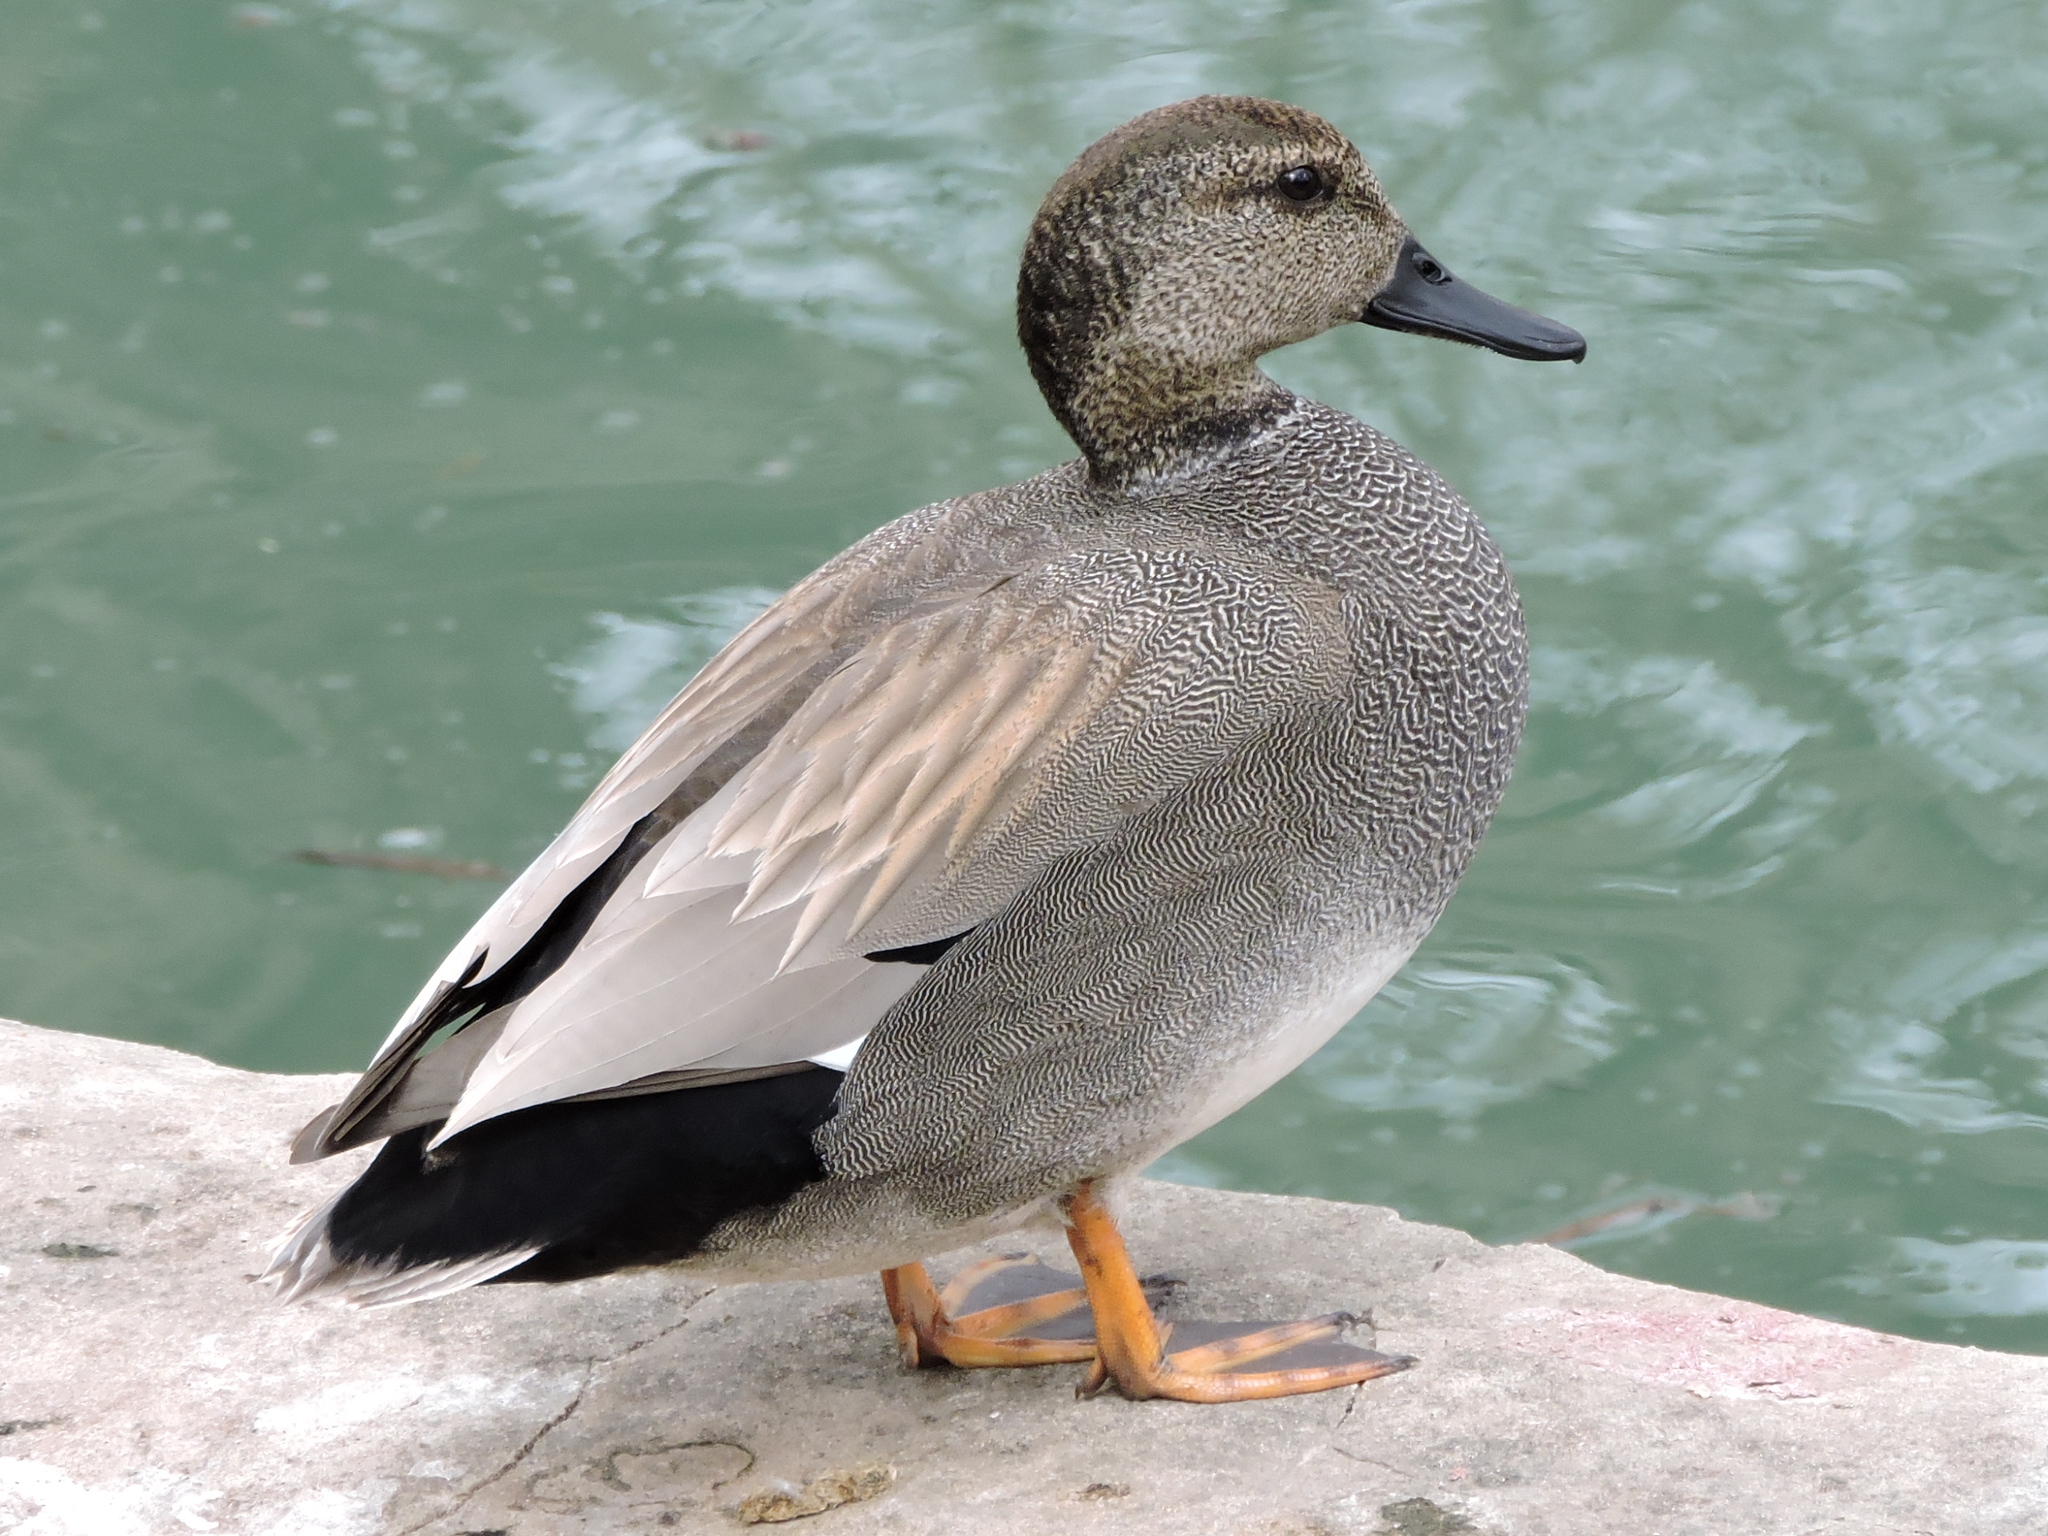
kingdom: Animalia
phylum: Chordata
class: Aves
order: Anseriformes
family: Anatidae
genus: Mareca
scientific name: Mareca strepera
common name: Gadwall
